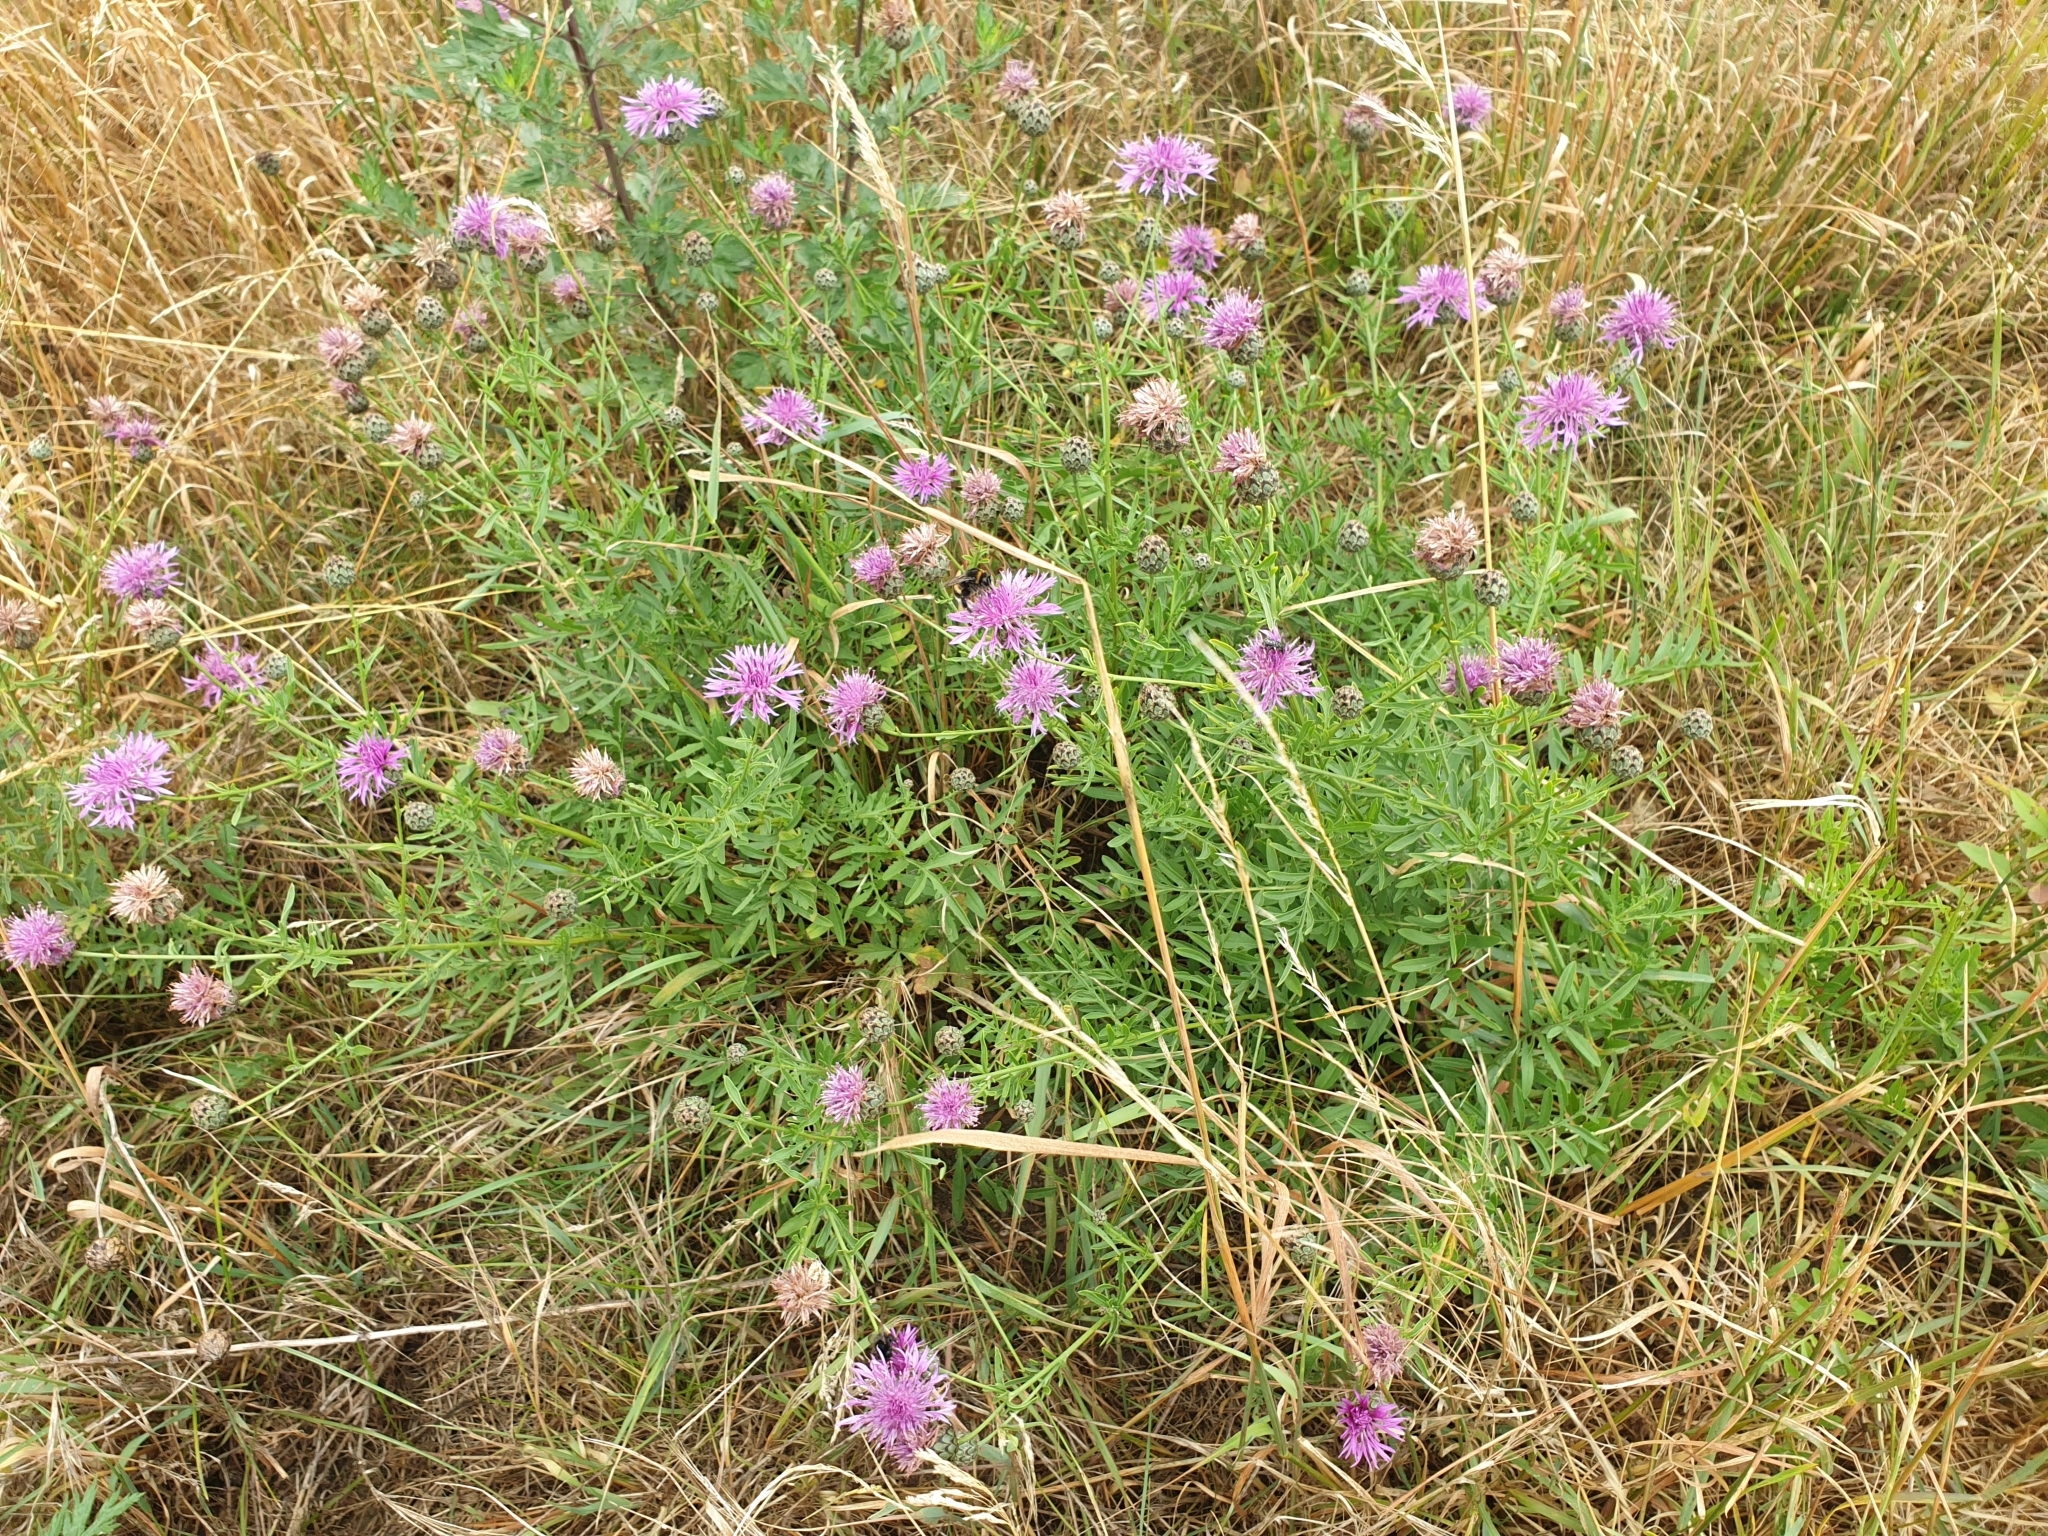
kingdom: Plantae
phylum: Tracheophyta
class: Magnoliopsida
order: Asterales
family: Asteraceae
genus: Centaurea
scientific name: Centaurea scabiosa
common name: Greater knapweed
